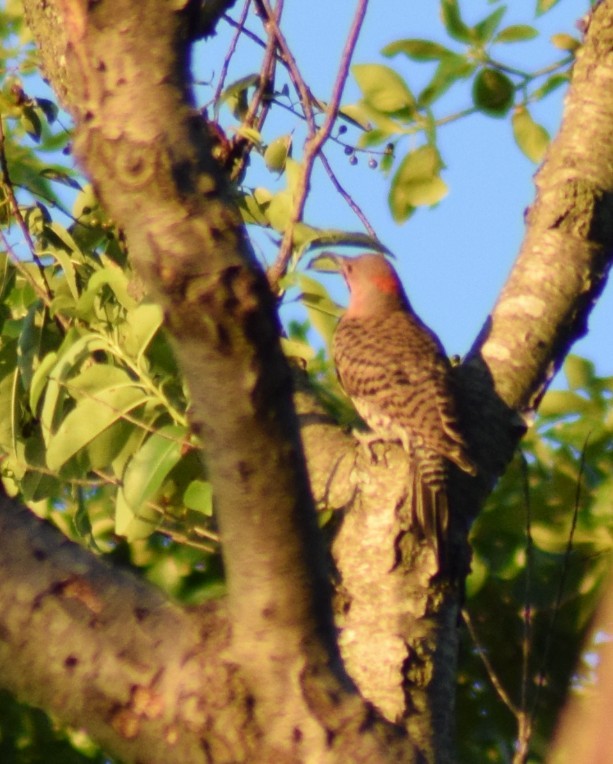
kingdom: Animalia
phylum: Chordata
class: Aves
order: Piciformes
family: Picidae
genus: Colaptes
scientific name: Colaptes auratus
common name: Northern flicker
